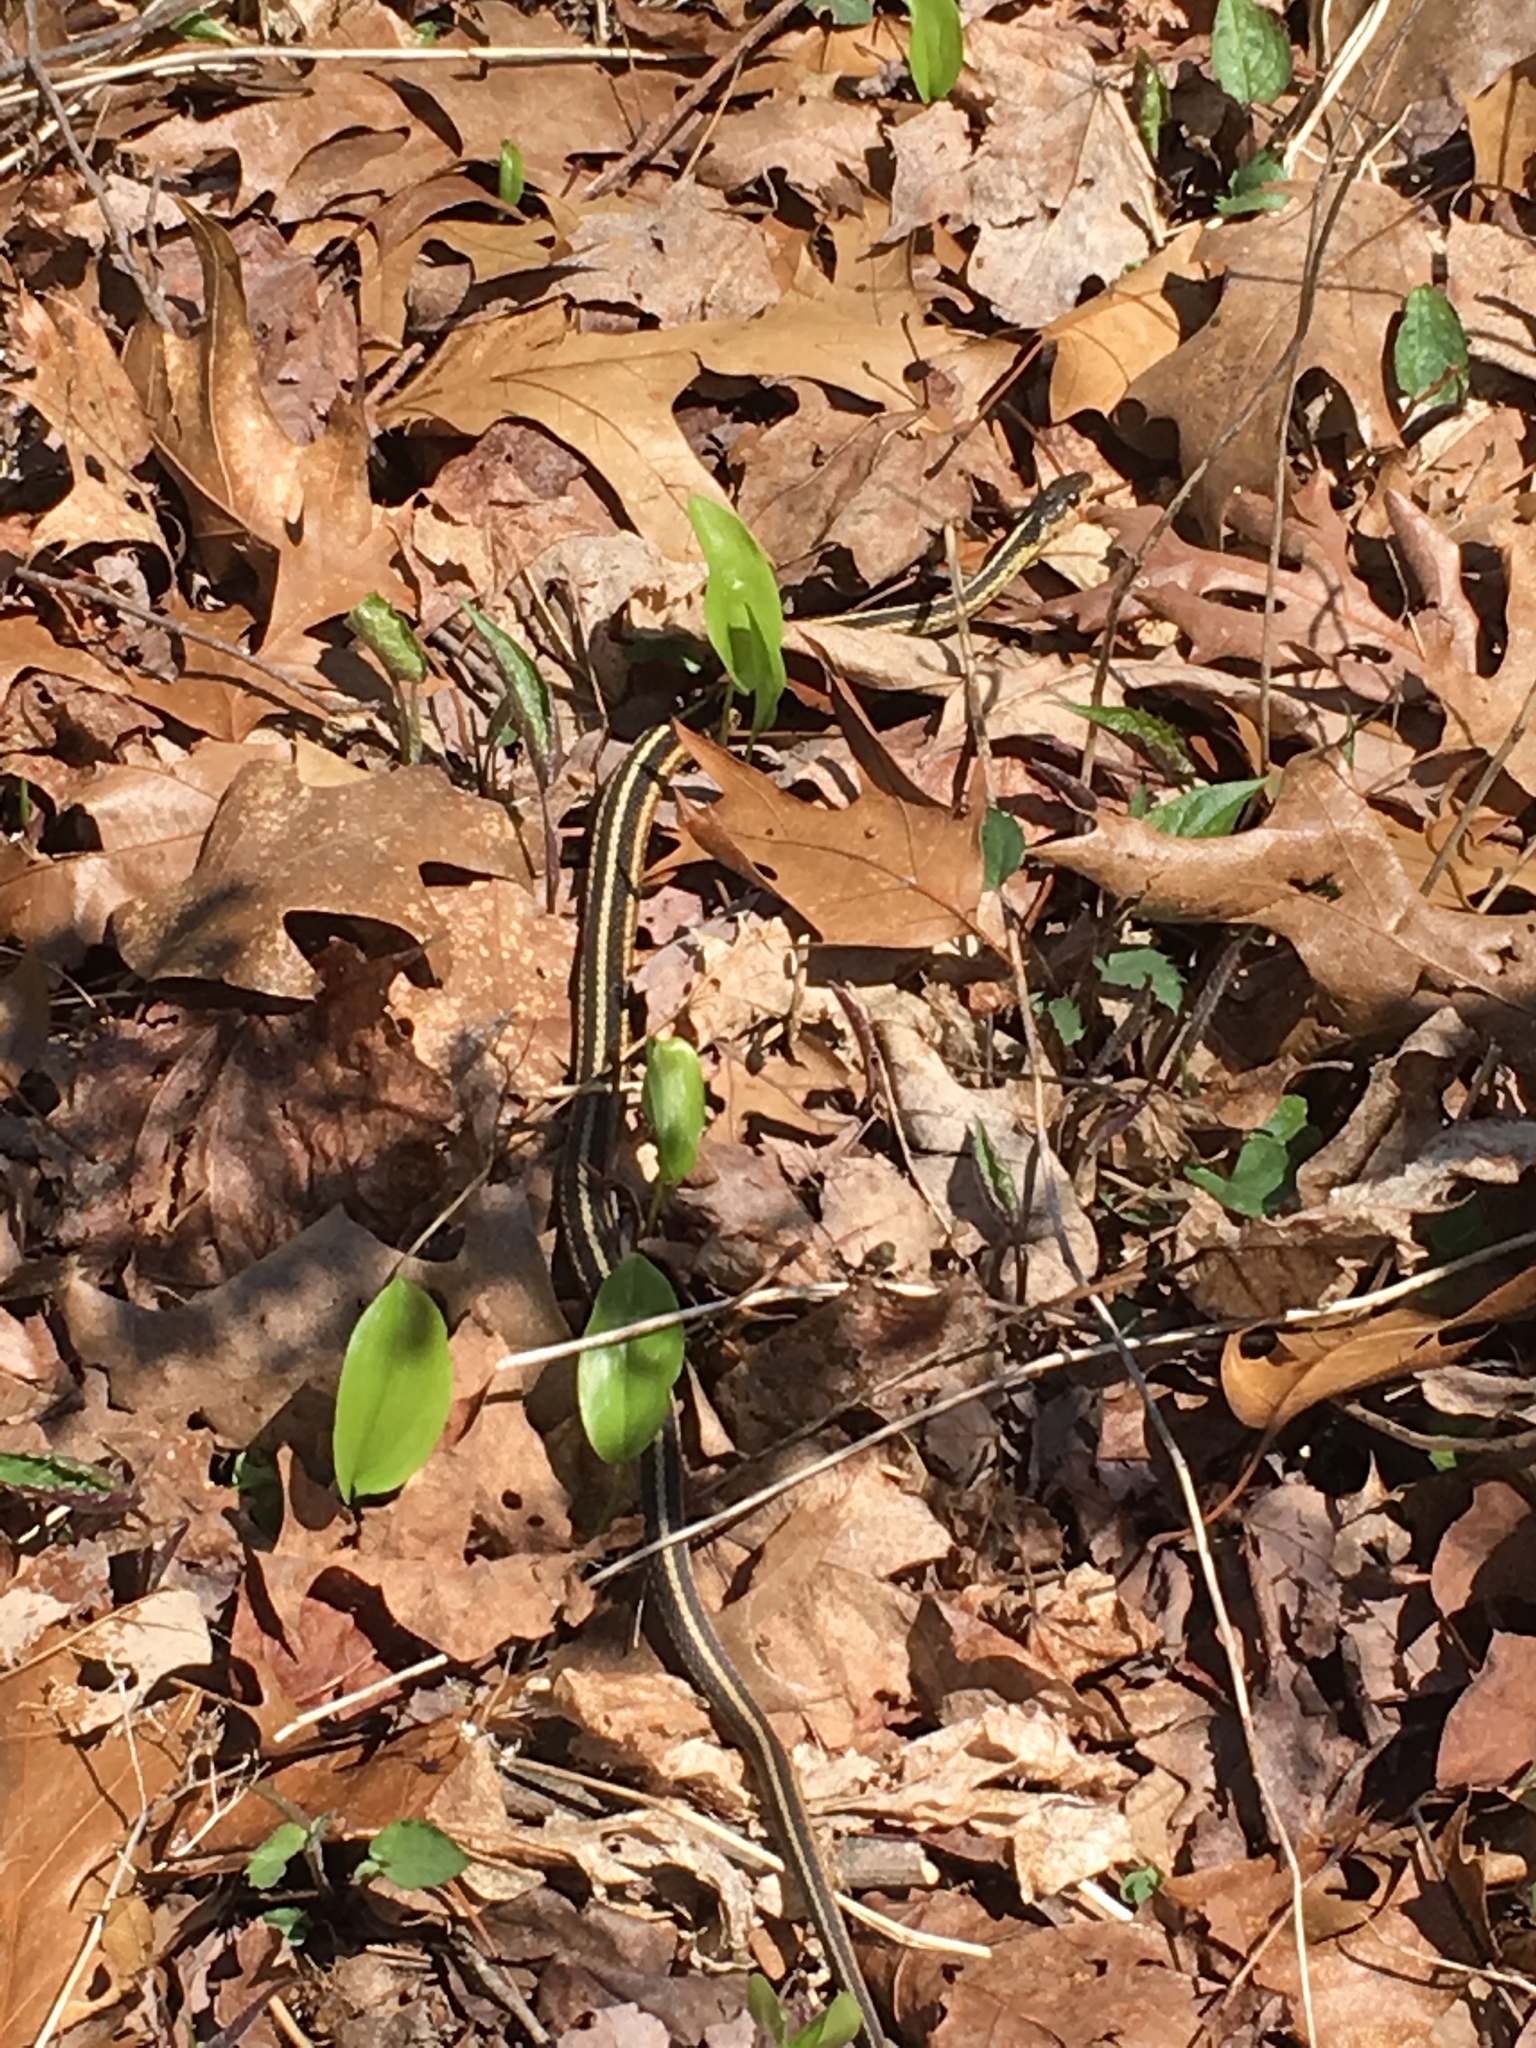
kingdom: Animalia
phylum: Chordata
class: Squamata
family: Colubridae
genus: Thamnophis
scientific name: Thamnophis sirtalis
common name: Common garter snake
